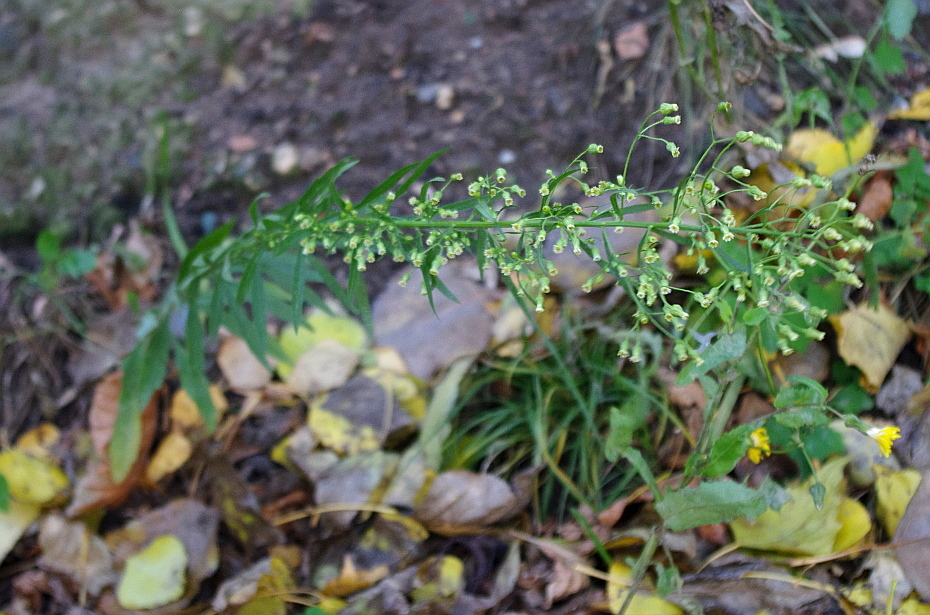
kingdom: Plantae
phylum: Tracheophyta
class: Magnoliopsida
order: Asterales
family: Asteraceae
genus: Erigeron
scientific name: Erigeron canadensis
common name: Canadian fleabane
